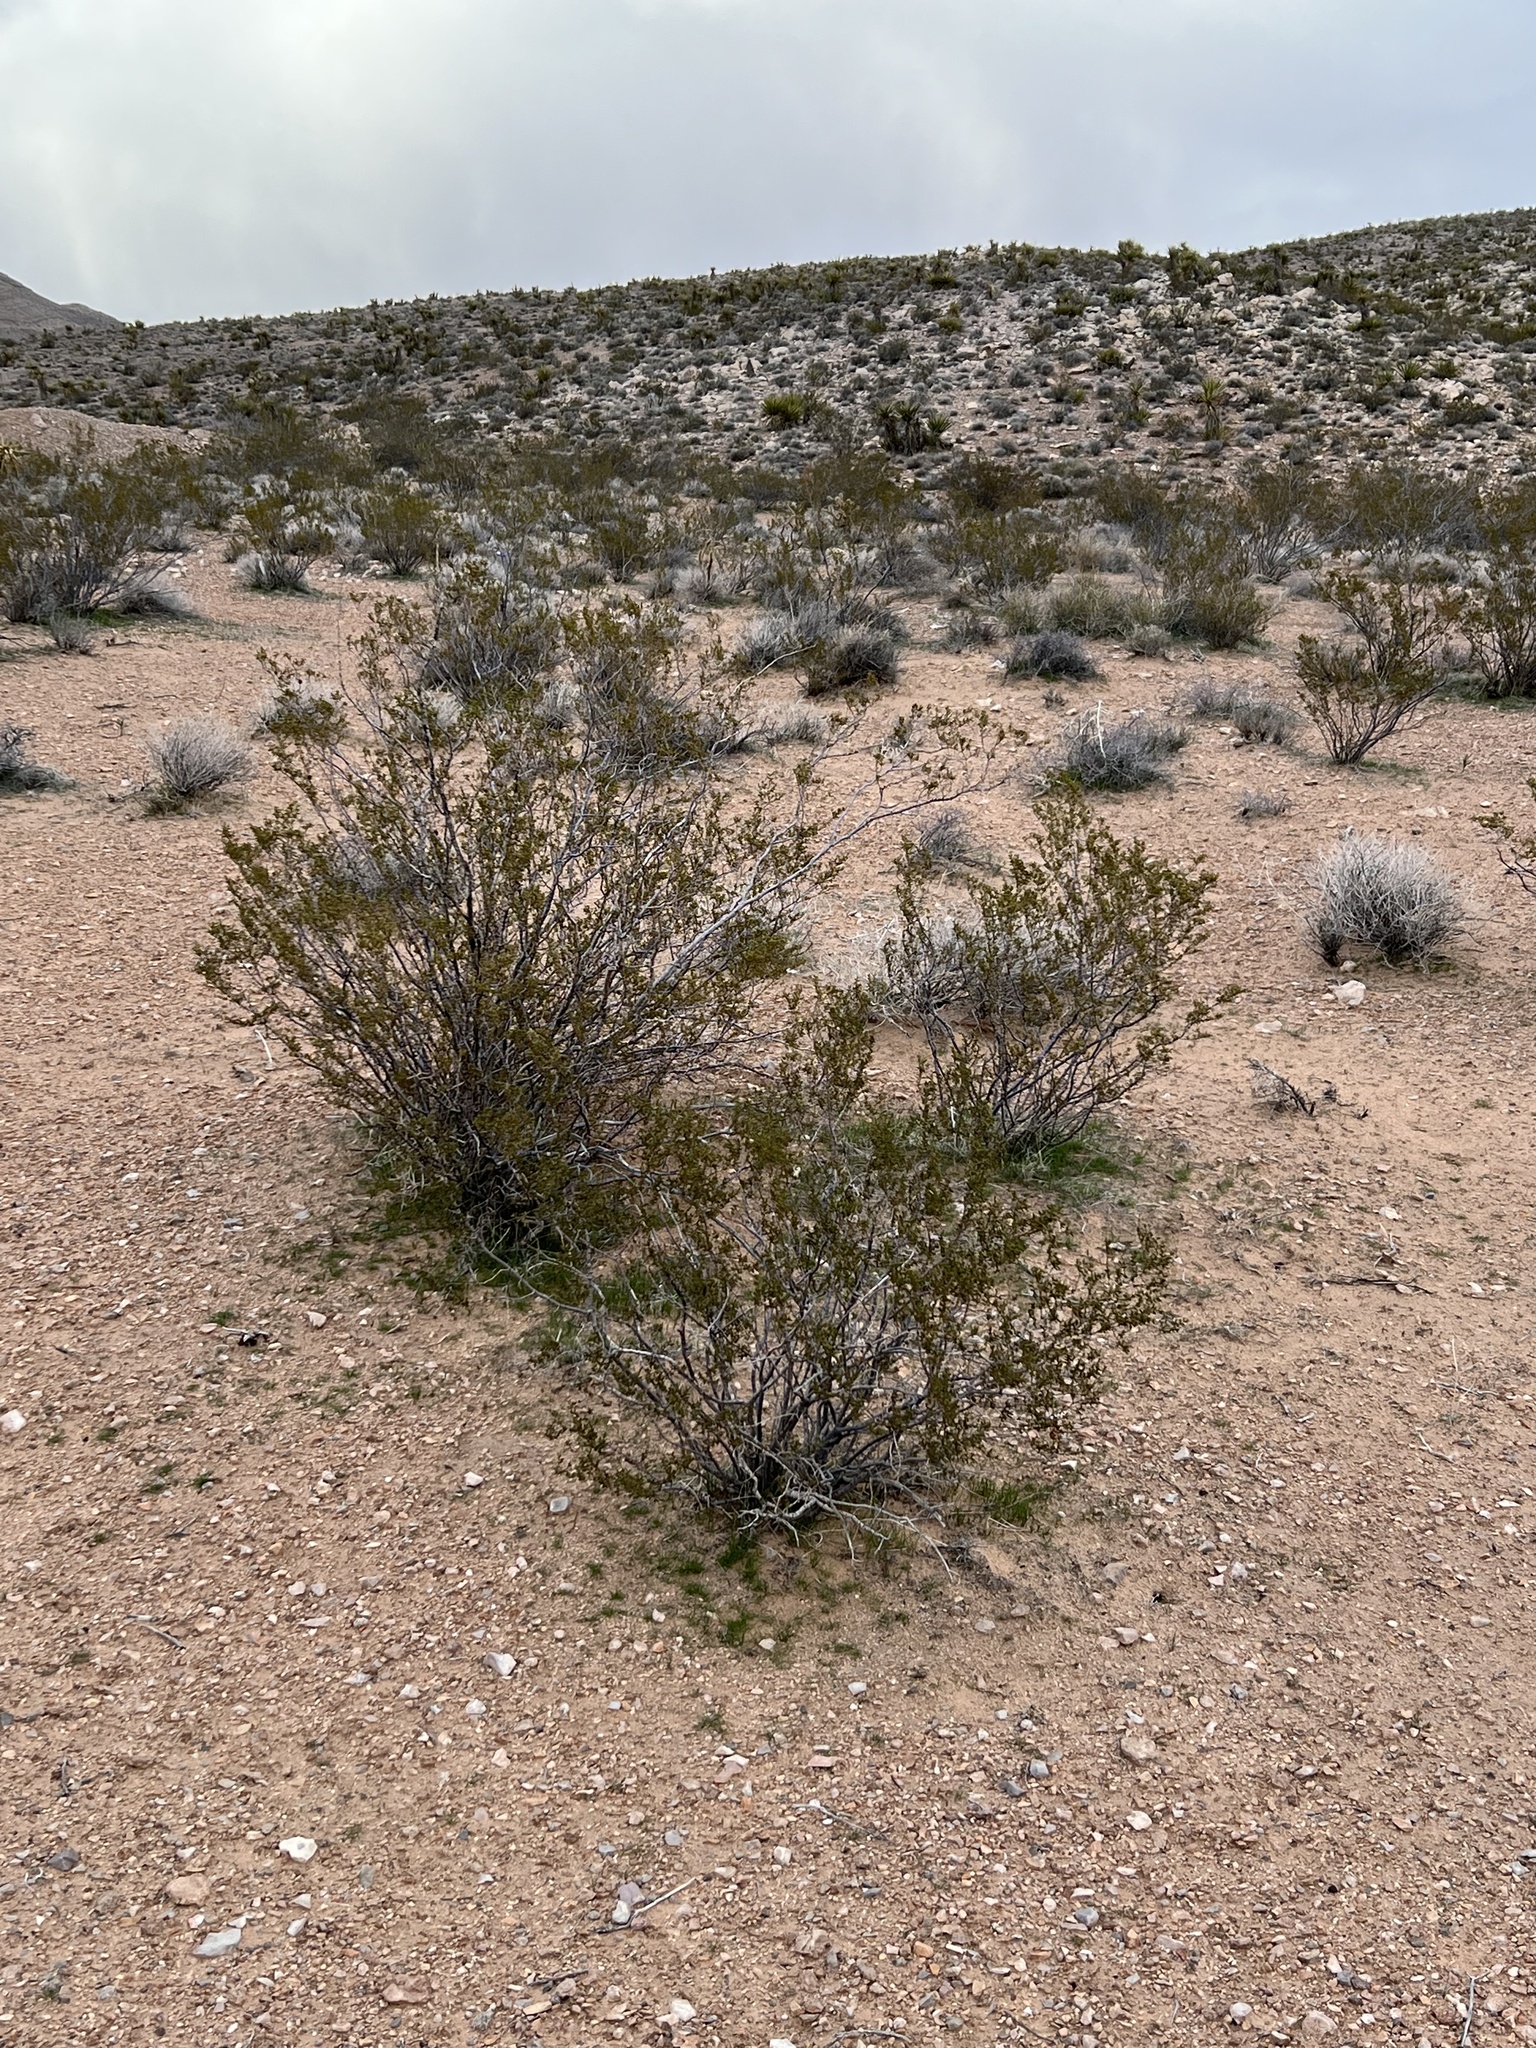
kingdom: Plantae
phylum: Tracheophyta
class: Magnoliopsida
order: Zygophyllales
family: Zygophyllaceae
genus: Larrea
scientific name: Larrea tridentata
